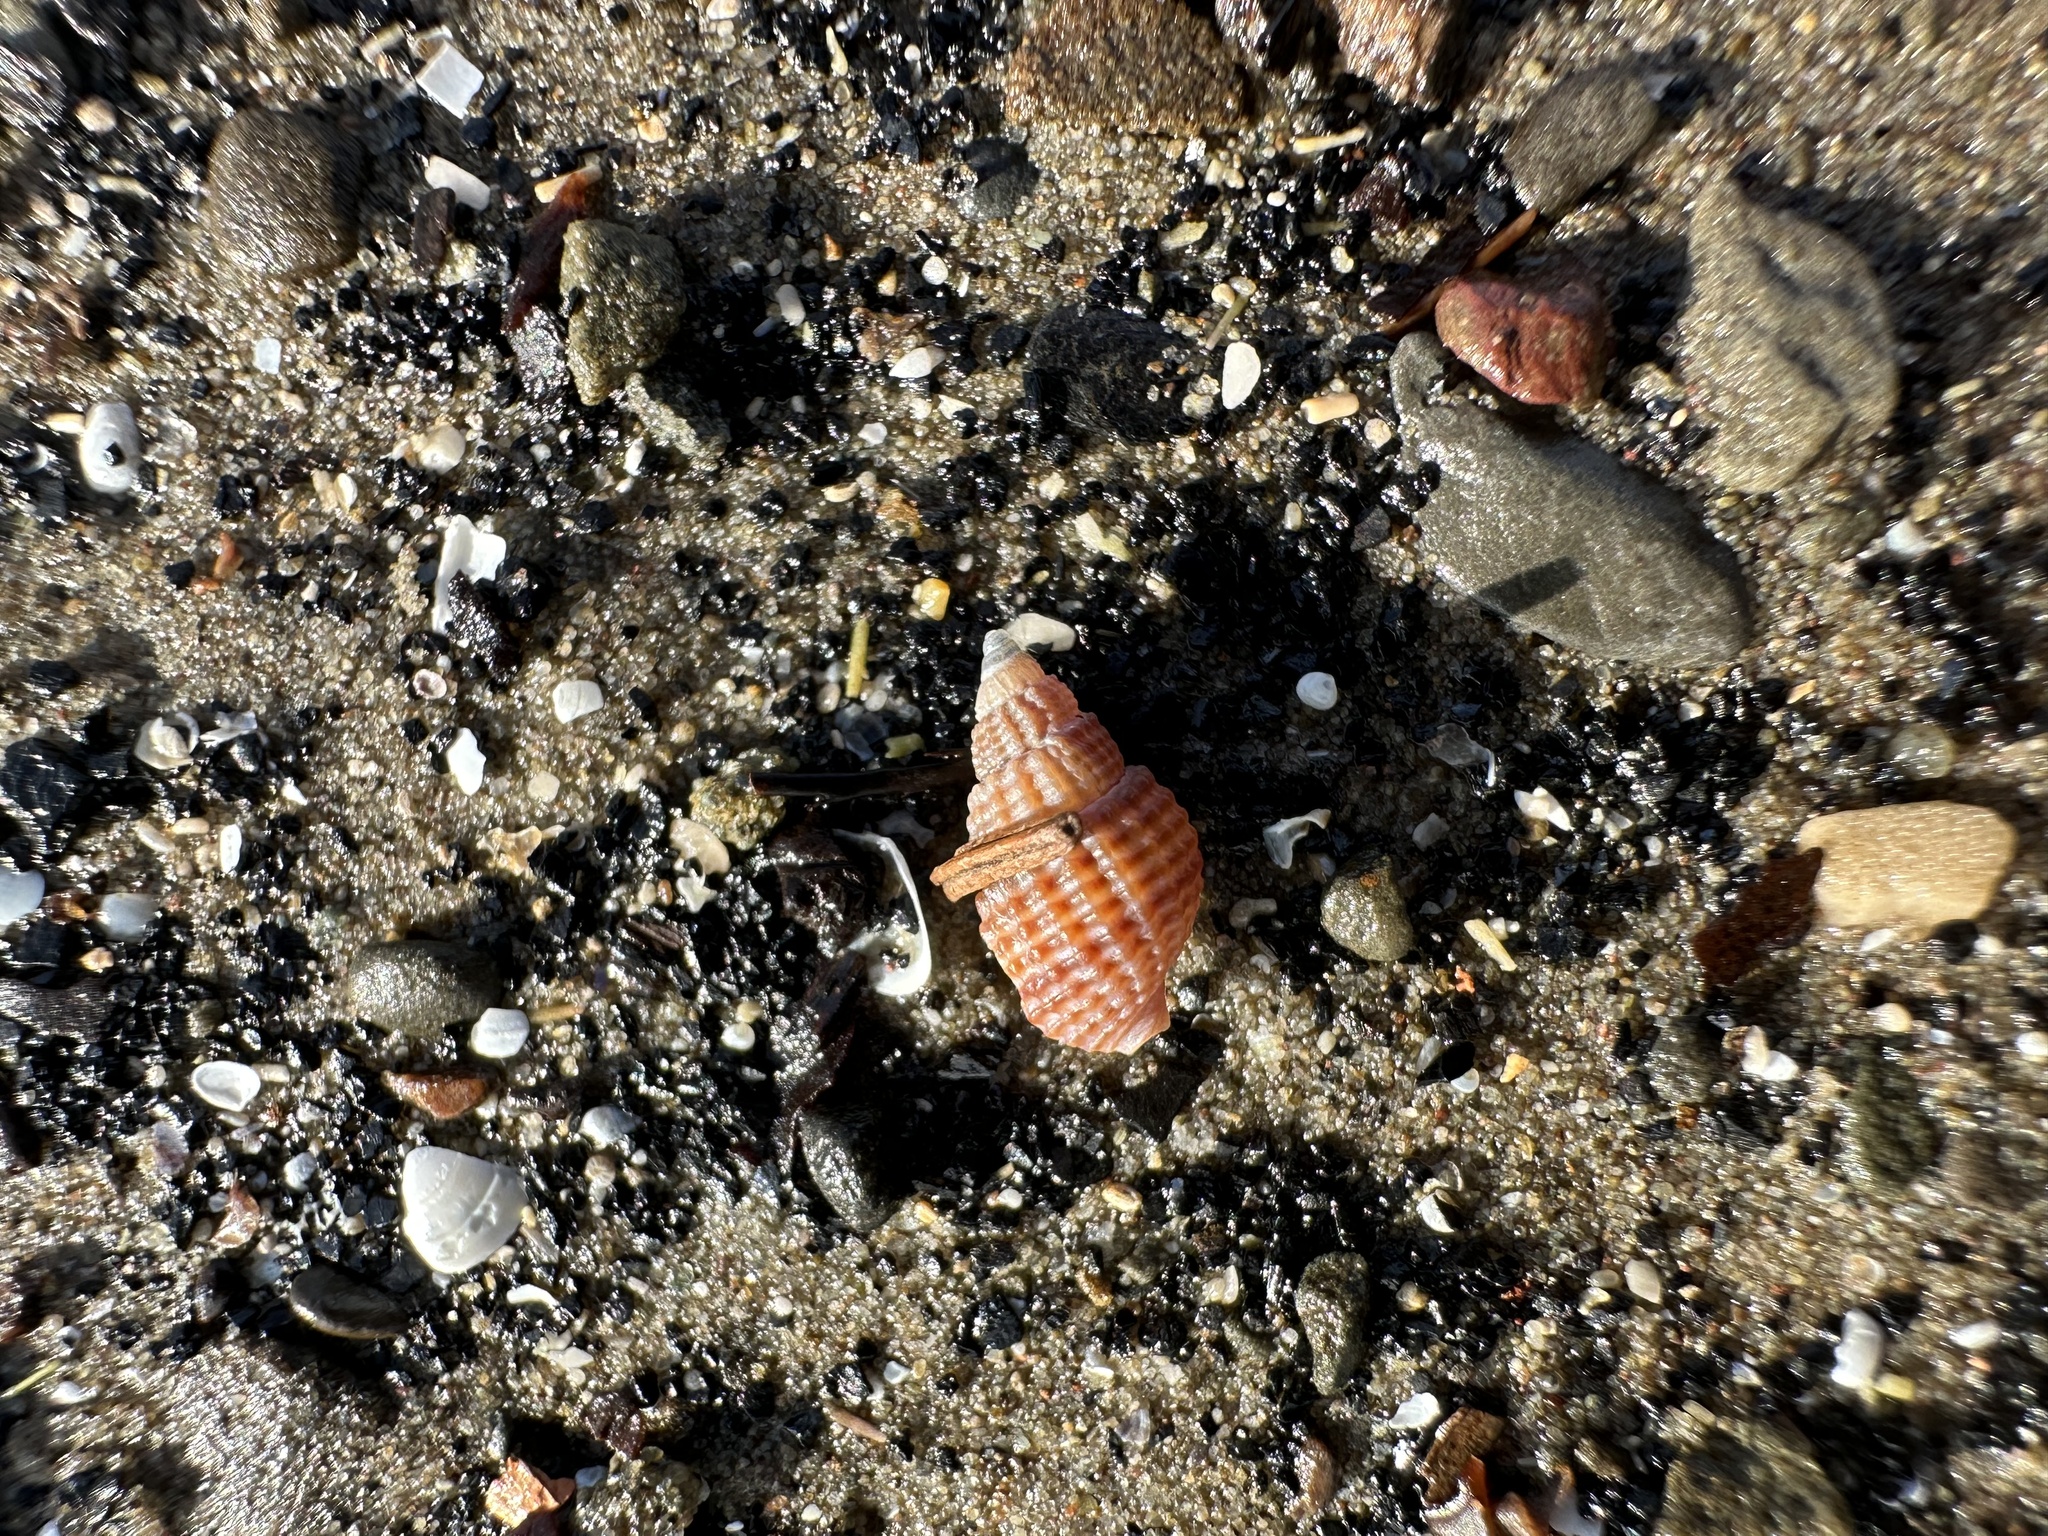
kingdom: Animalia
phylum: Mollusca
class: Gastropoda
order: Neogastropoda
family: Nassariidae
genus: Ilyanassa
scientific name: Ilyanassa trivittata
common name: Three-line mudsnail
